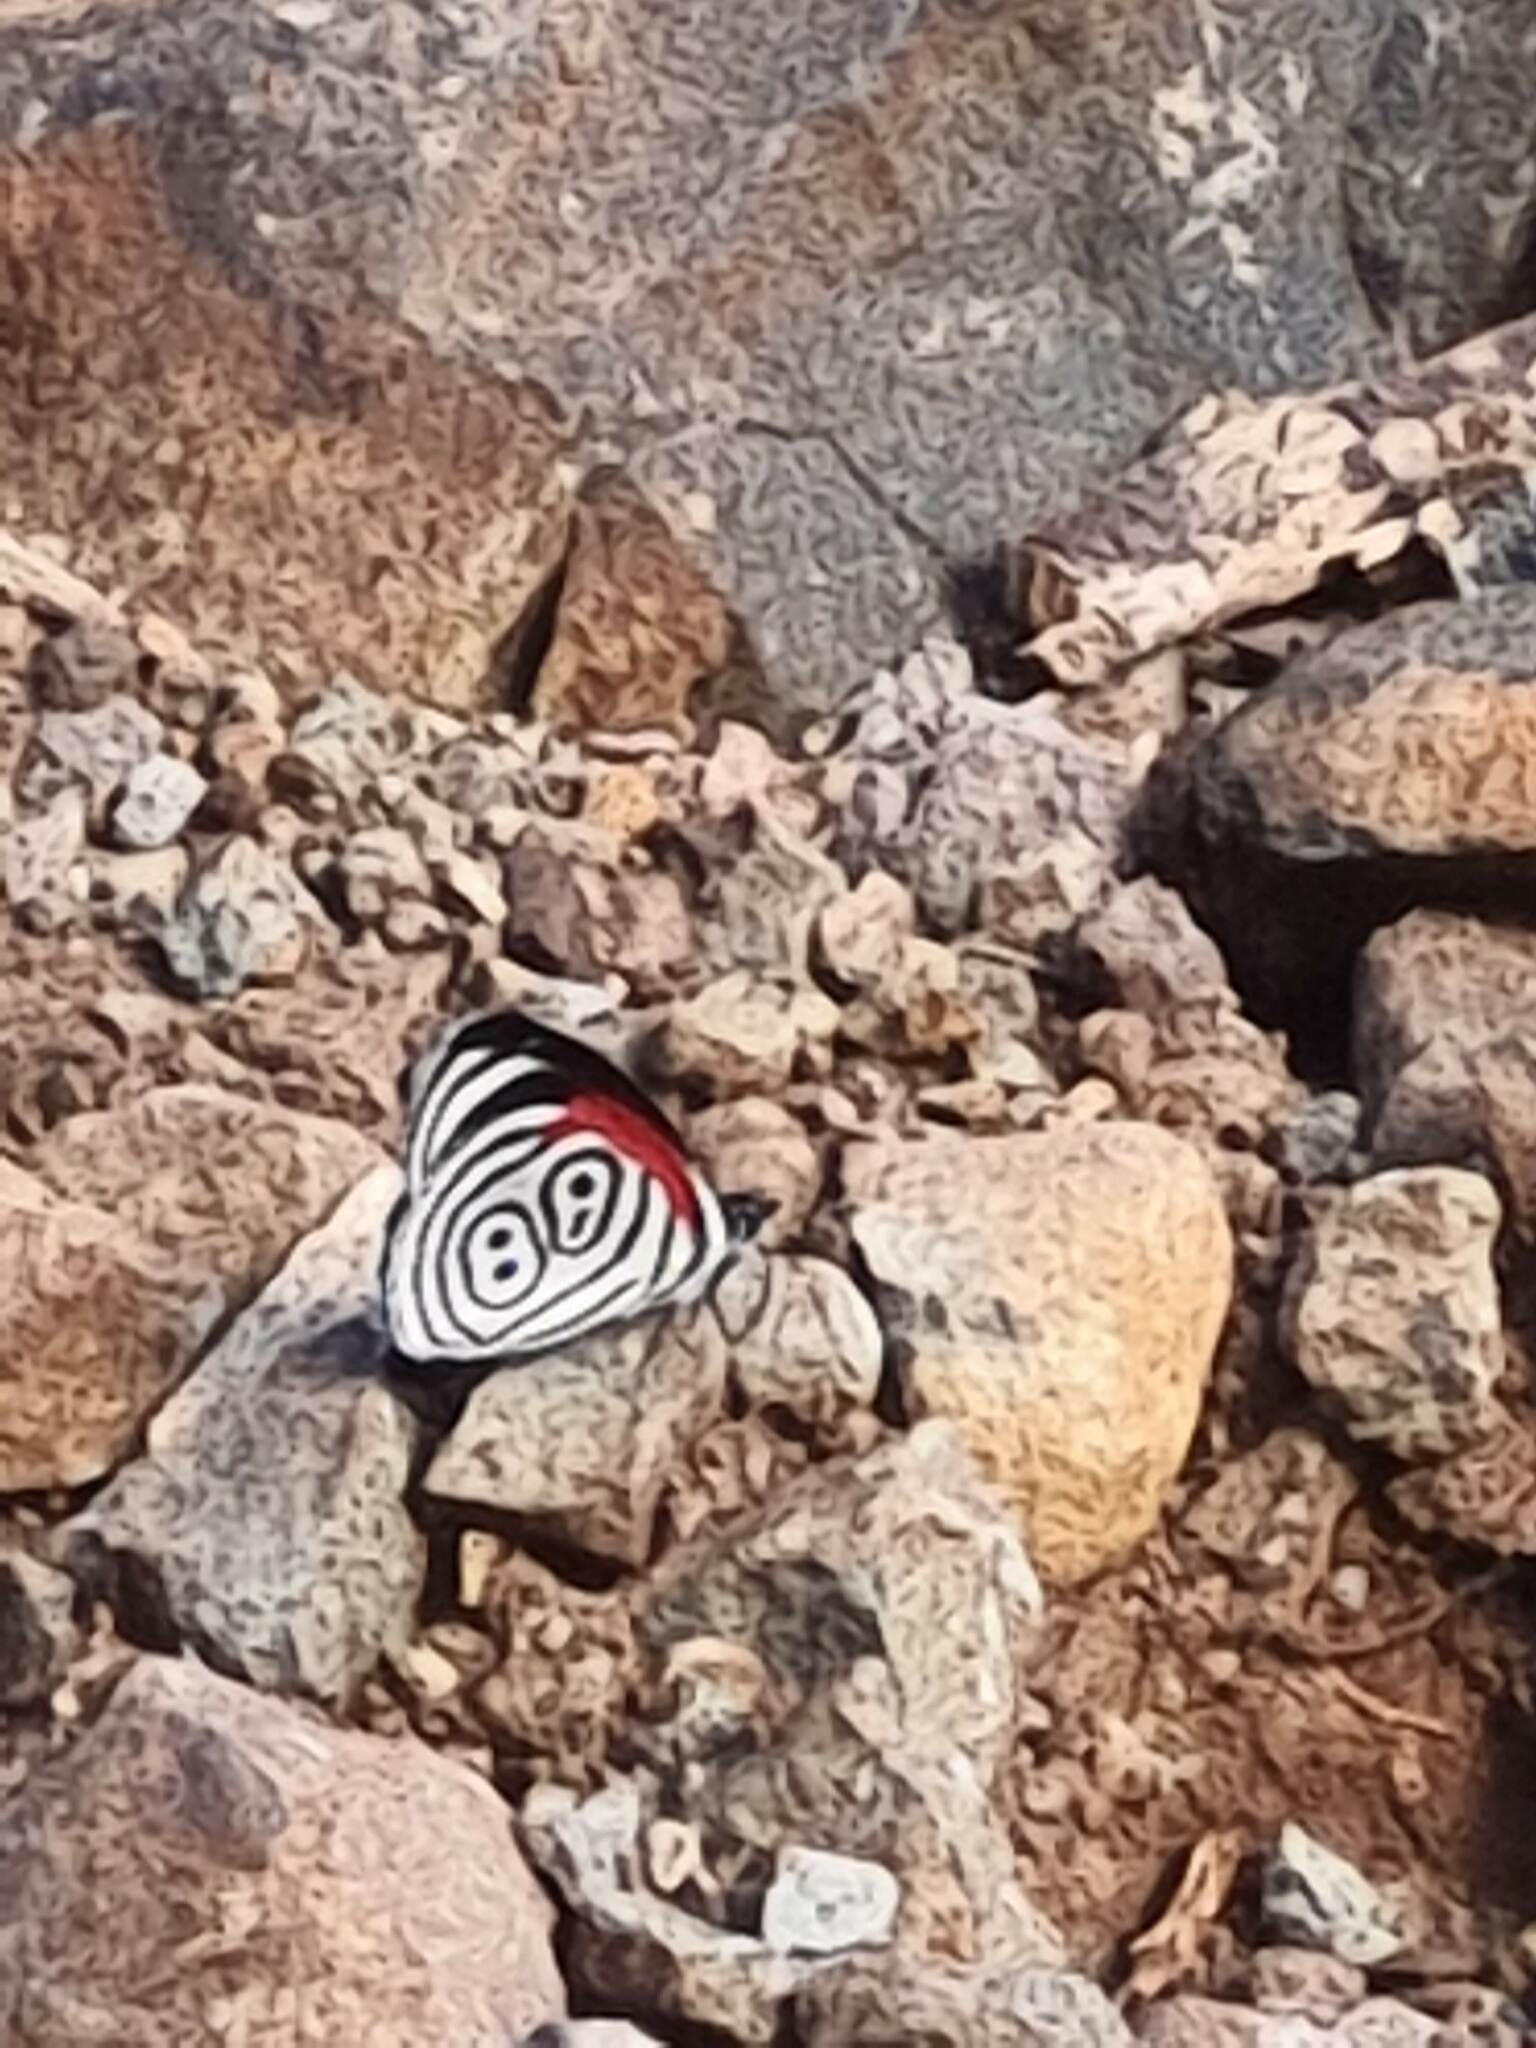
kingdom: Animalia
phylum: Arthropoda
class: Insecta
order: Lepidoptera
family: Nymphalidae
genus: Diaethria
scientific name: Diaethria clymena
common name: Widespread eighty-eight
